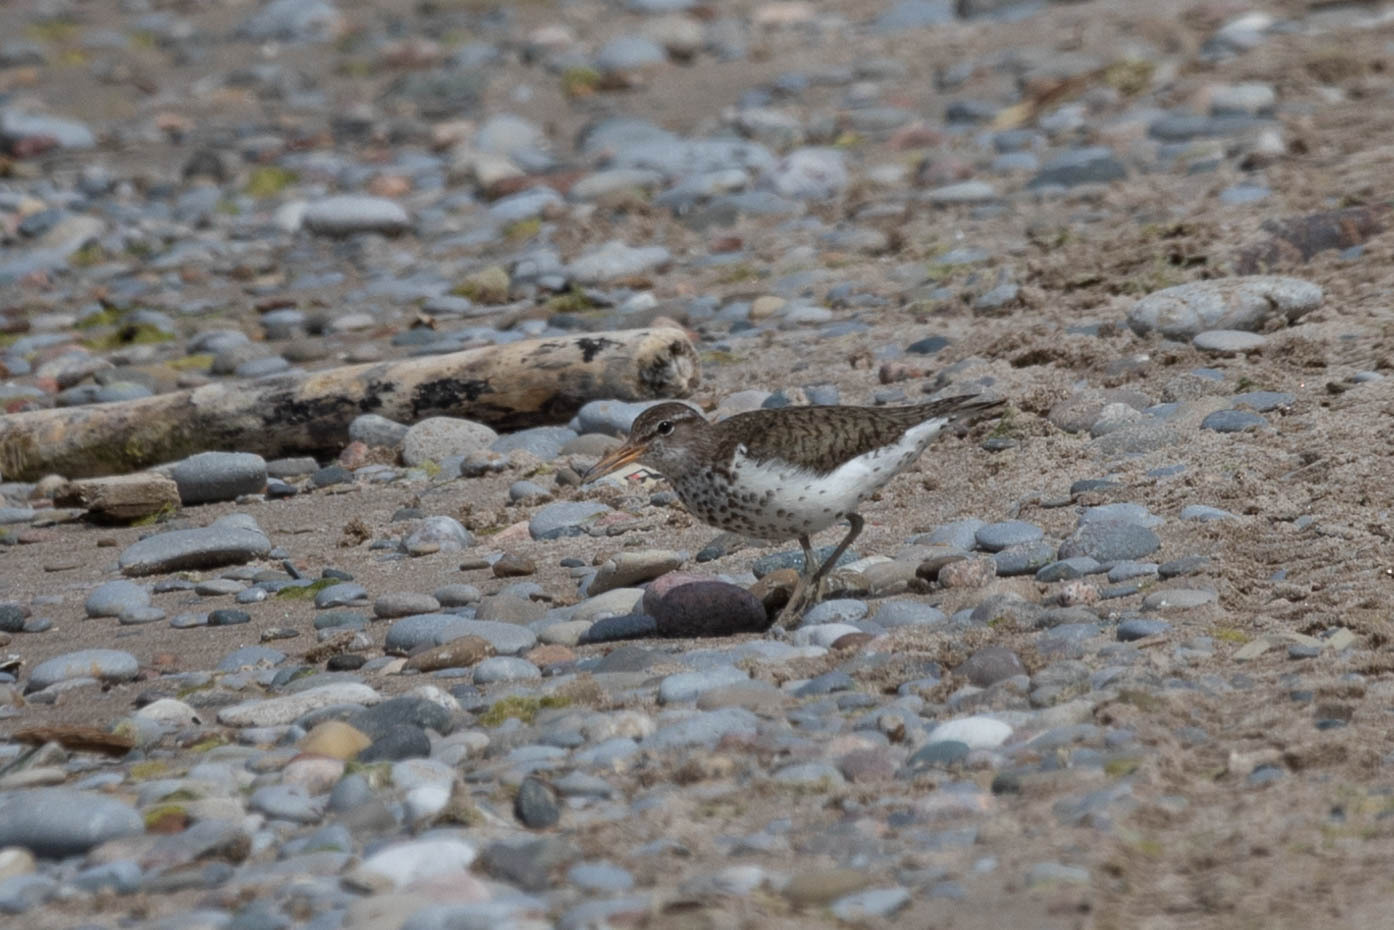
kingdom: Animalia
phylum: Chordata
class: Aves
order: Charadriiformes
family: Scolopacidae
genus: Actitis
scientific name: Actitis macularius
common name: Spotted sandpiper
